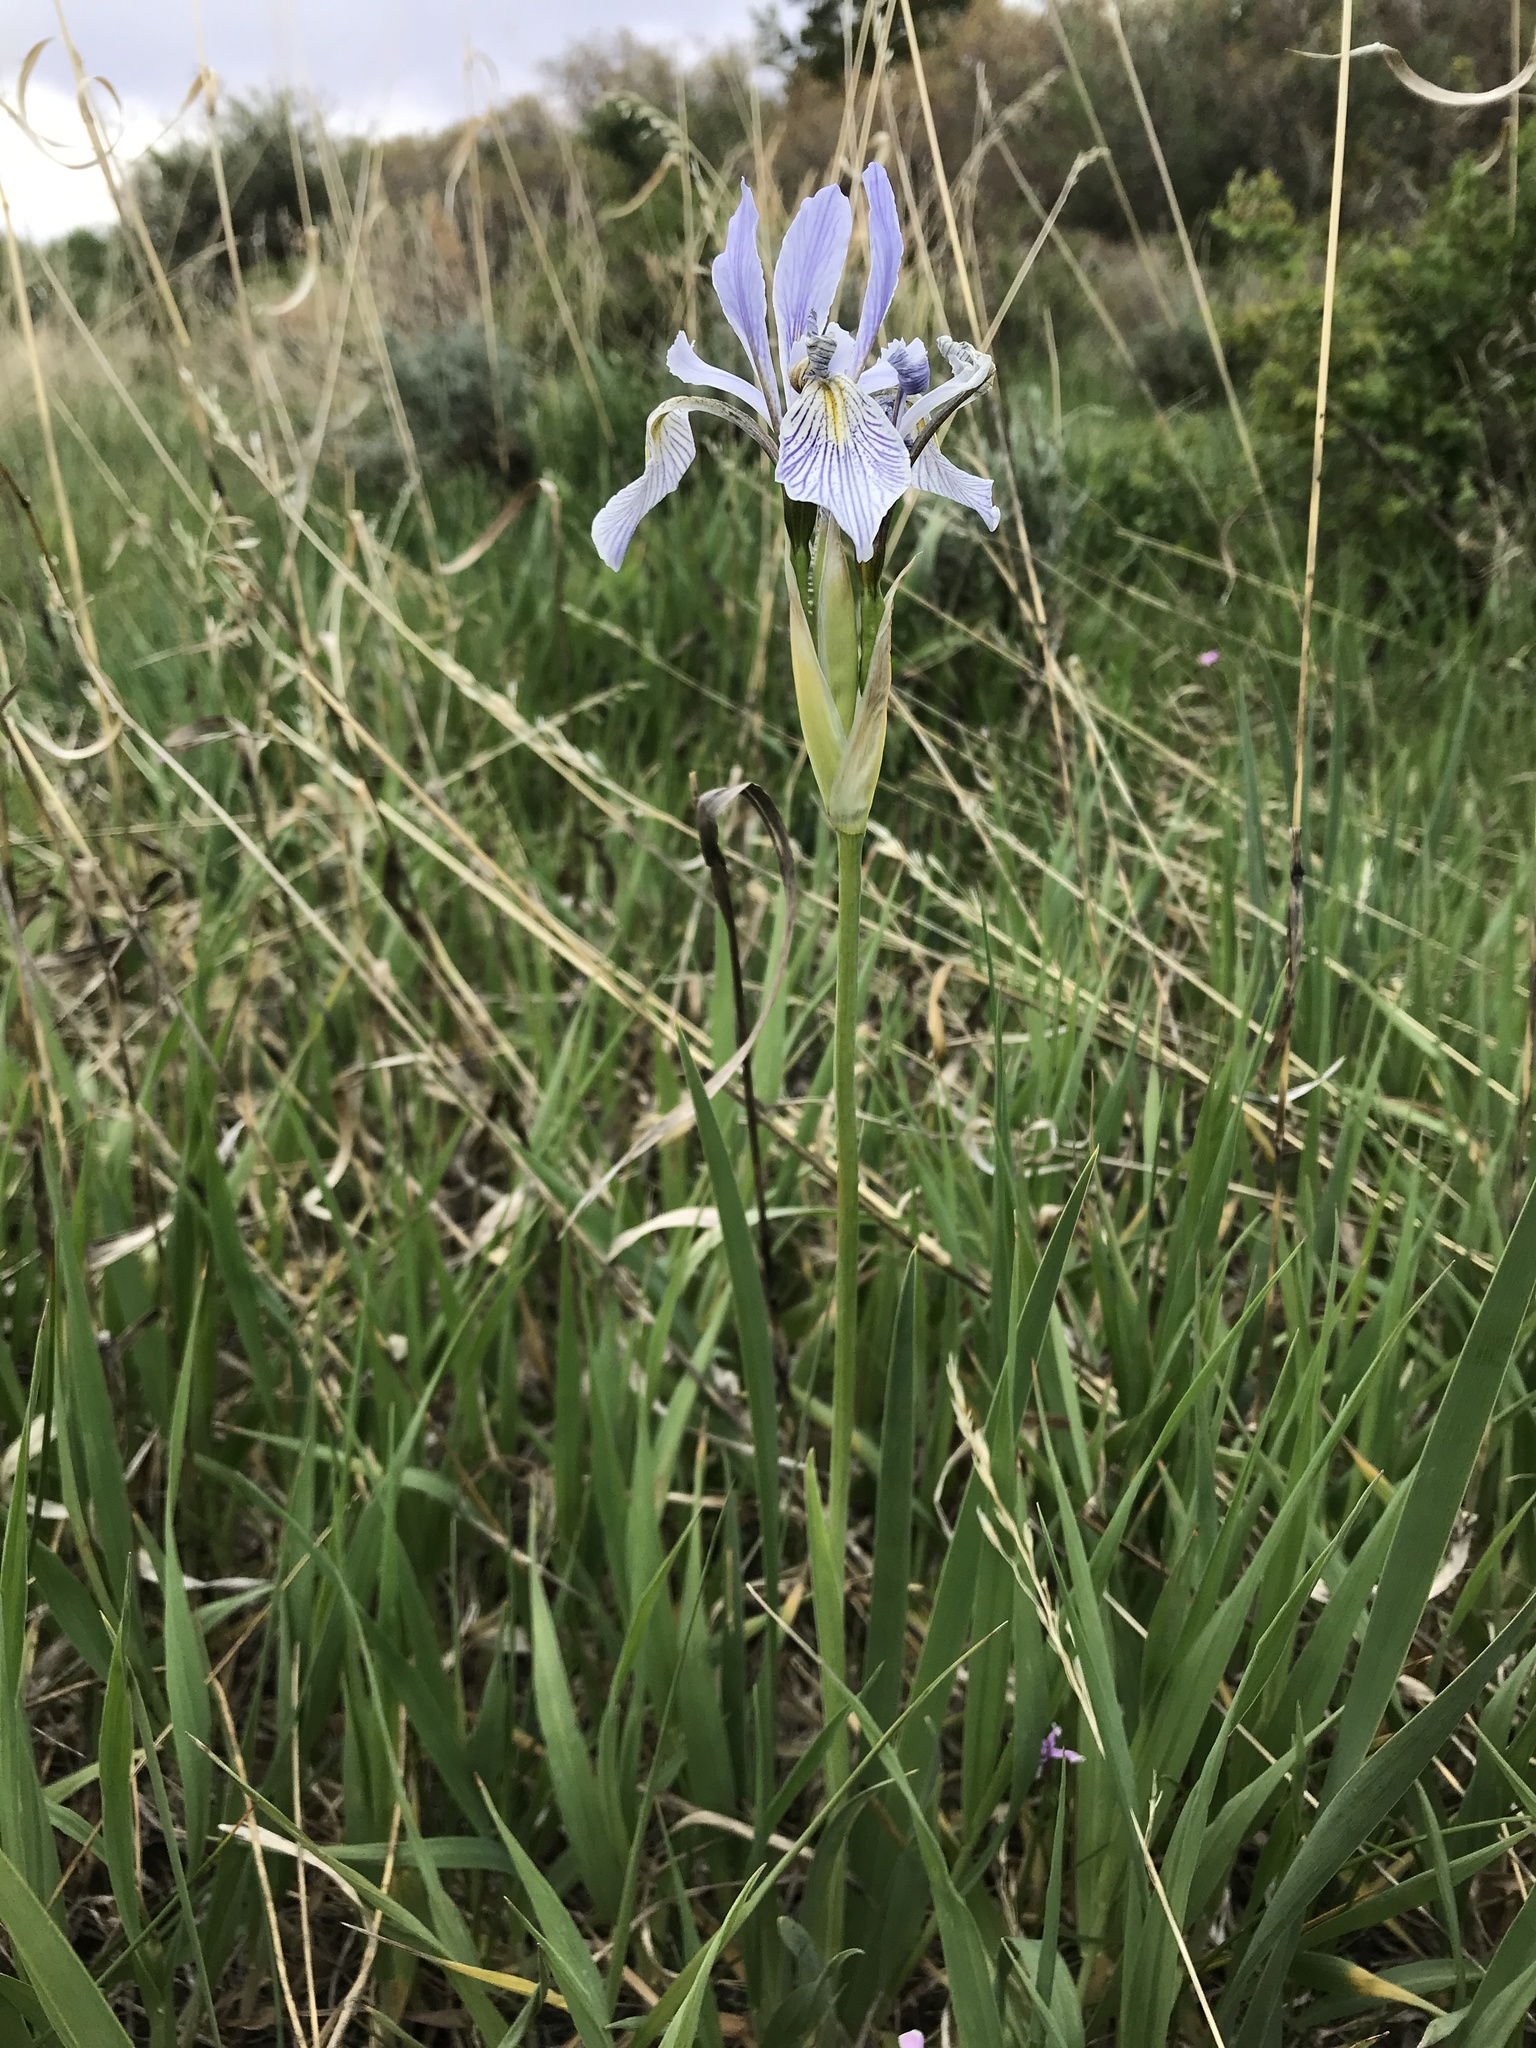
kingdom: Plantae
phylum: Tracheophyta
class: Liliopsida
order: Asparagales
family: Iridaceae
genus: Iris
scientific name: Iris missouriensis
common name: Rocky mountain iris
